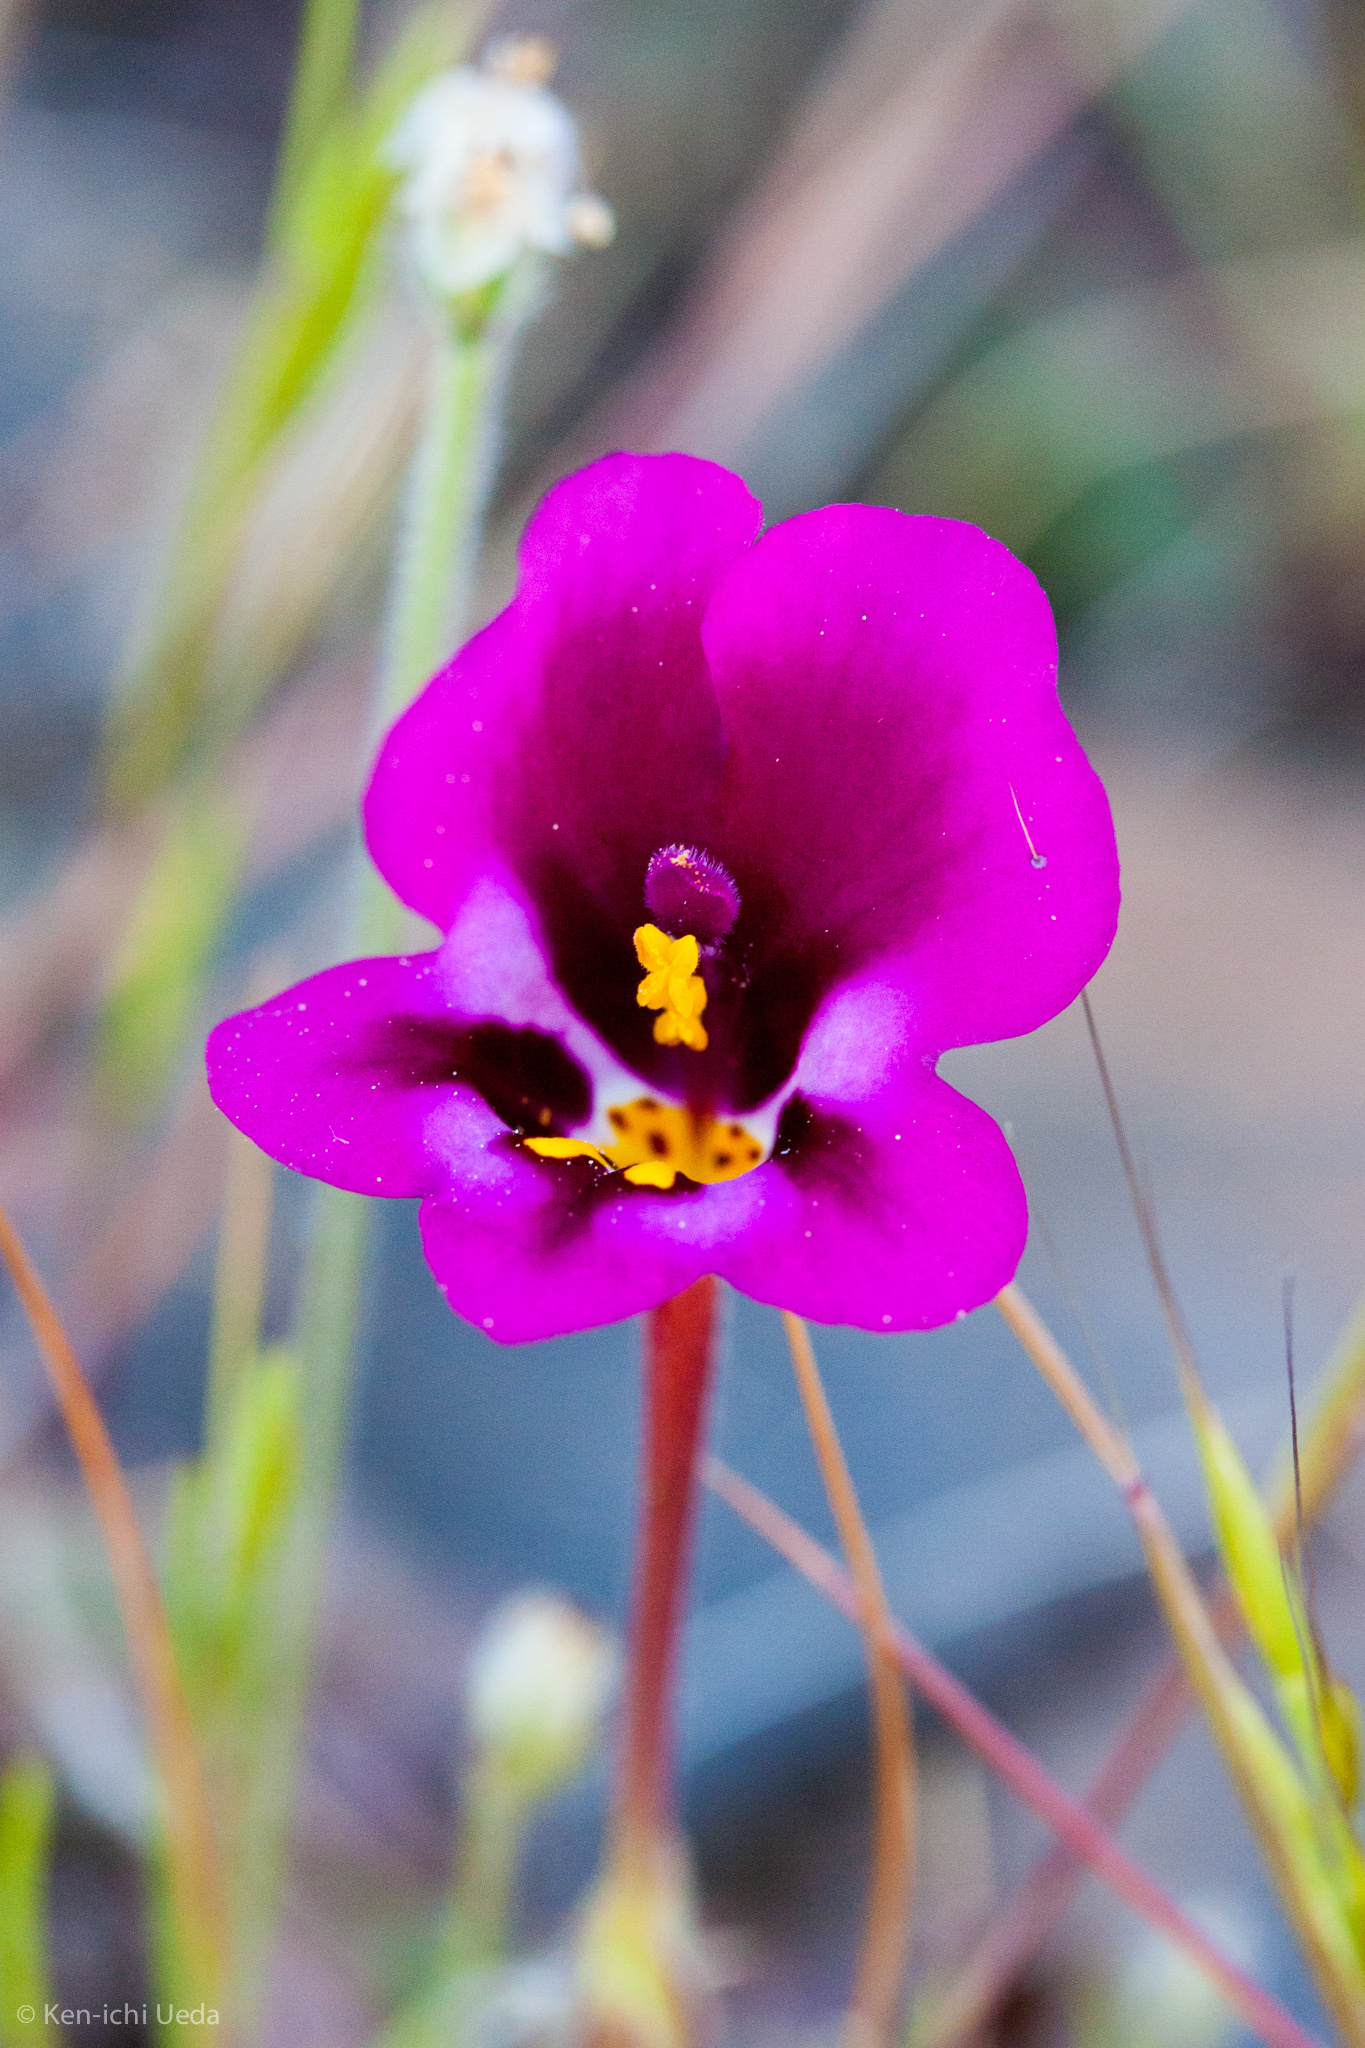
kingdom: Plantae
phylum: Tracheophyta
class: Magnoliopsida
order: Lamiales
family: Phrymaceae
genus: Diplacus
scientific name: Diplacus kelloggii
